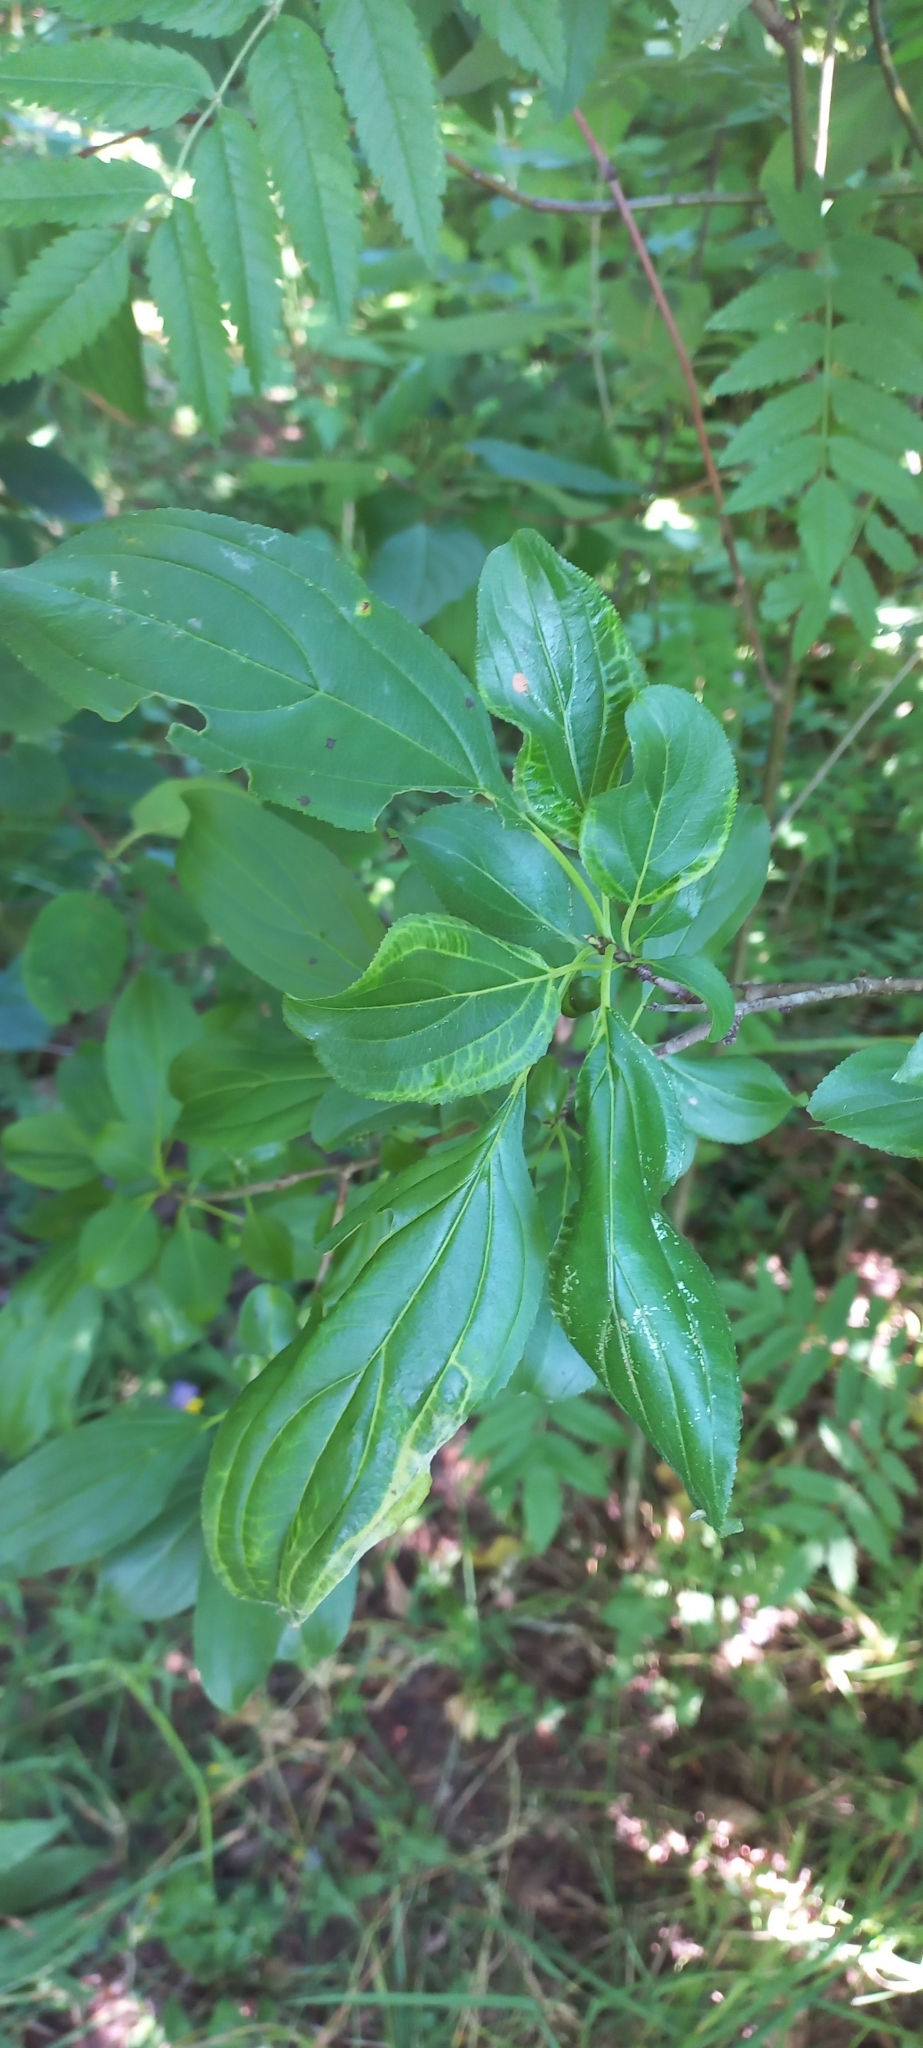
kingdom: Plantae
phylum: Tracheophyta
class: Magnoliopsida
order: Rosales
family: Rhamnaceae
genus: Rhamnus
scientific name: Rhamnus cathartica
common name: Common buckthorn
